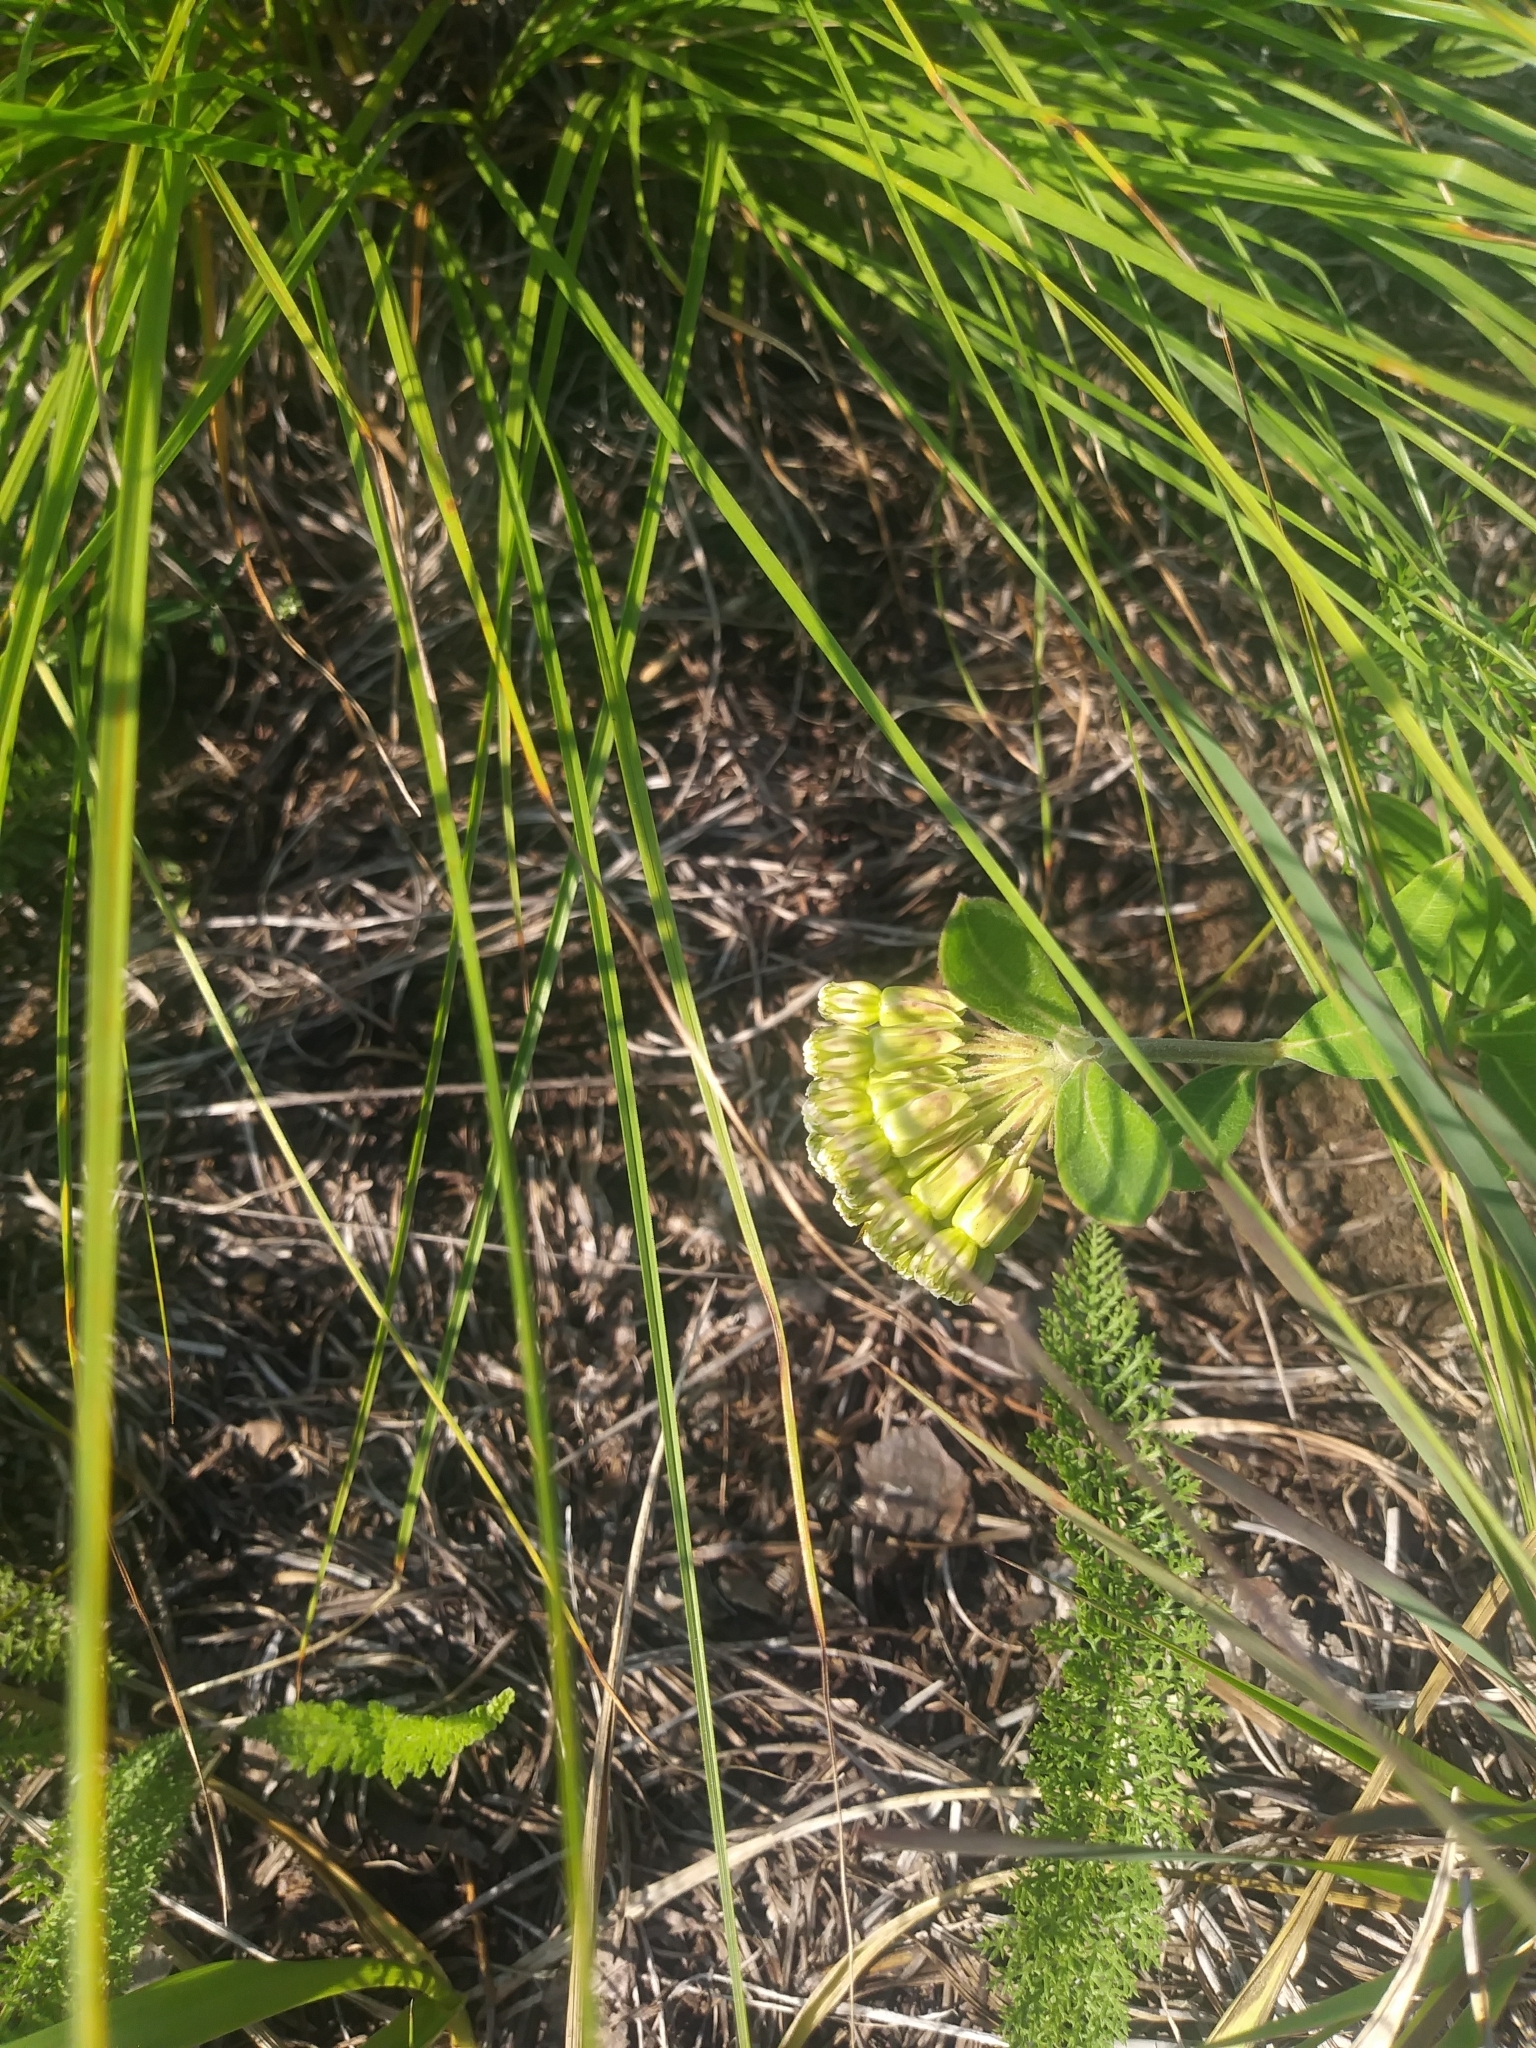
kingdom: Plantae
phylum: Tracheophyta
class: Magnoliopsida
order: Gentianales
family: Apocynaceae
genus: Asclepias
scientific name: Asclepias viridiflora
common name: Green comet milkweed
